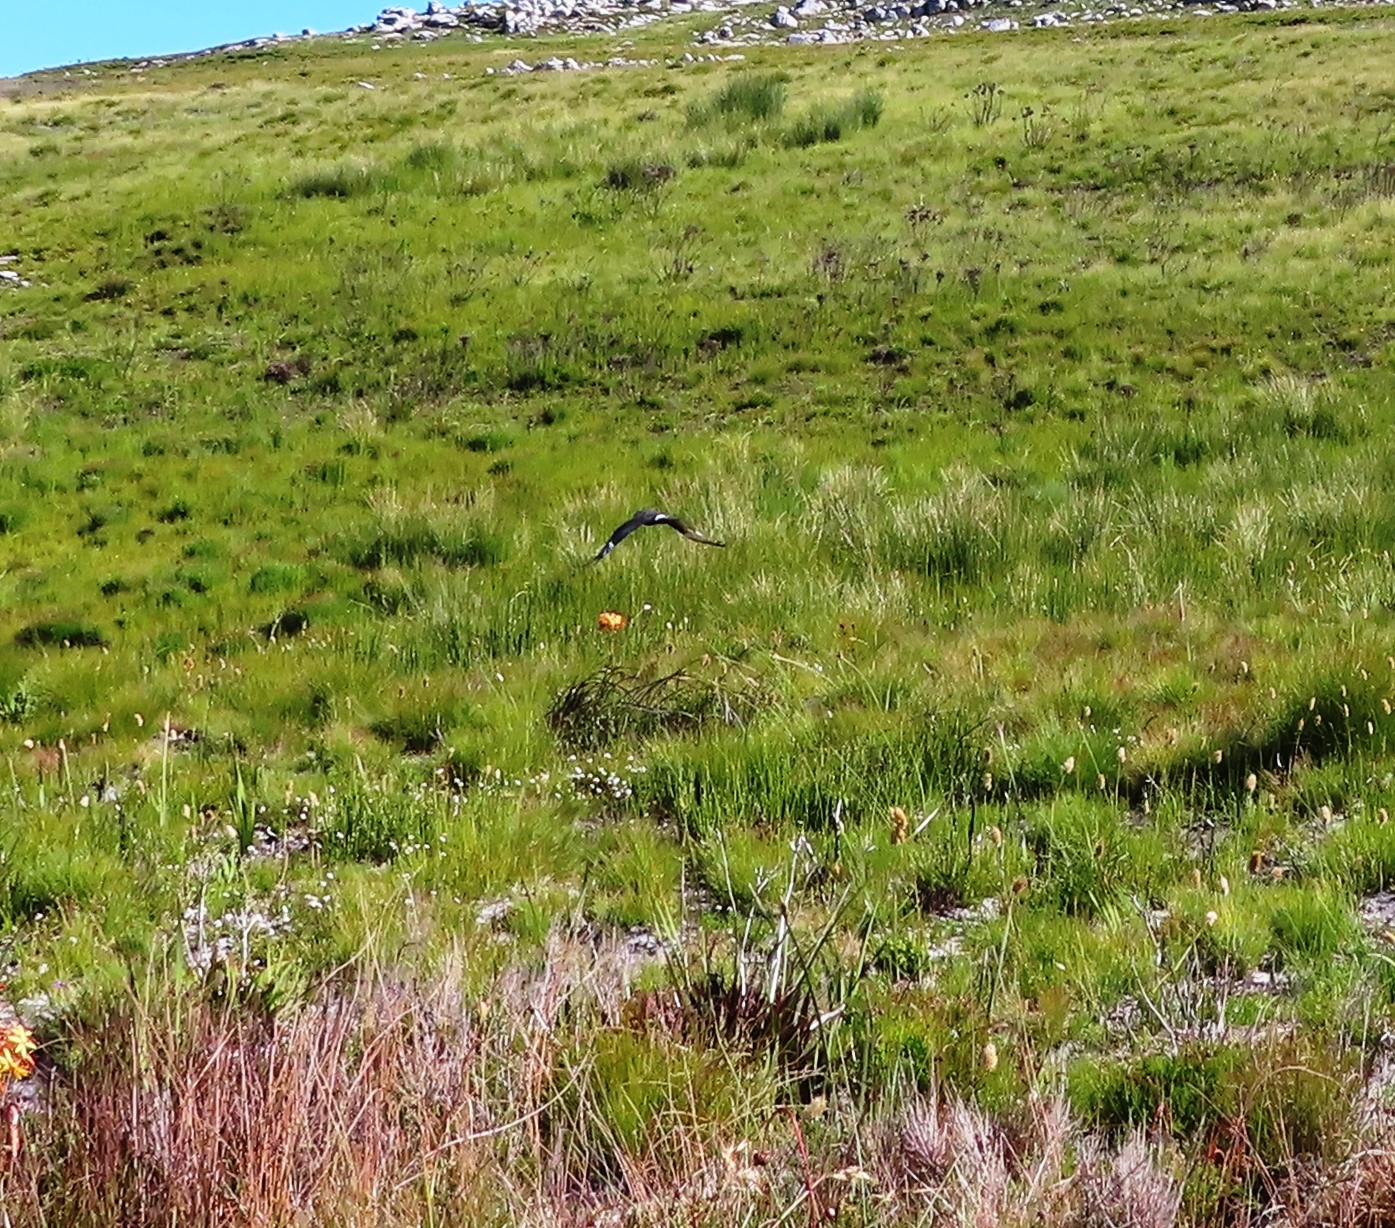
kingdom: Animalia
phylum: Chordata
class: Aves
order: Accipitriformes
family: Accipitridae
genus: Circus
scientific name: Circus maurus
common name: Black harrier
